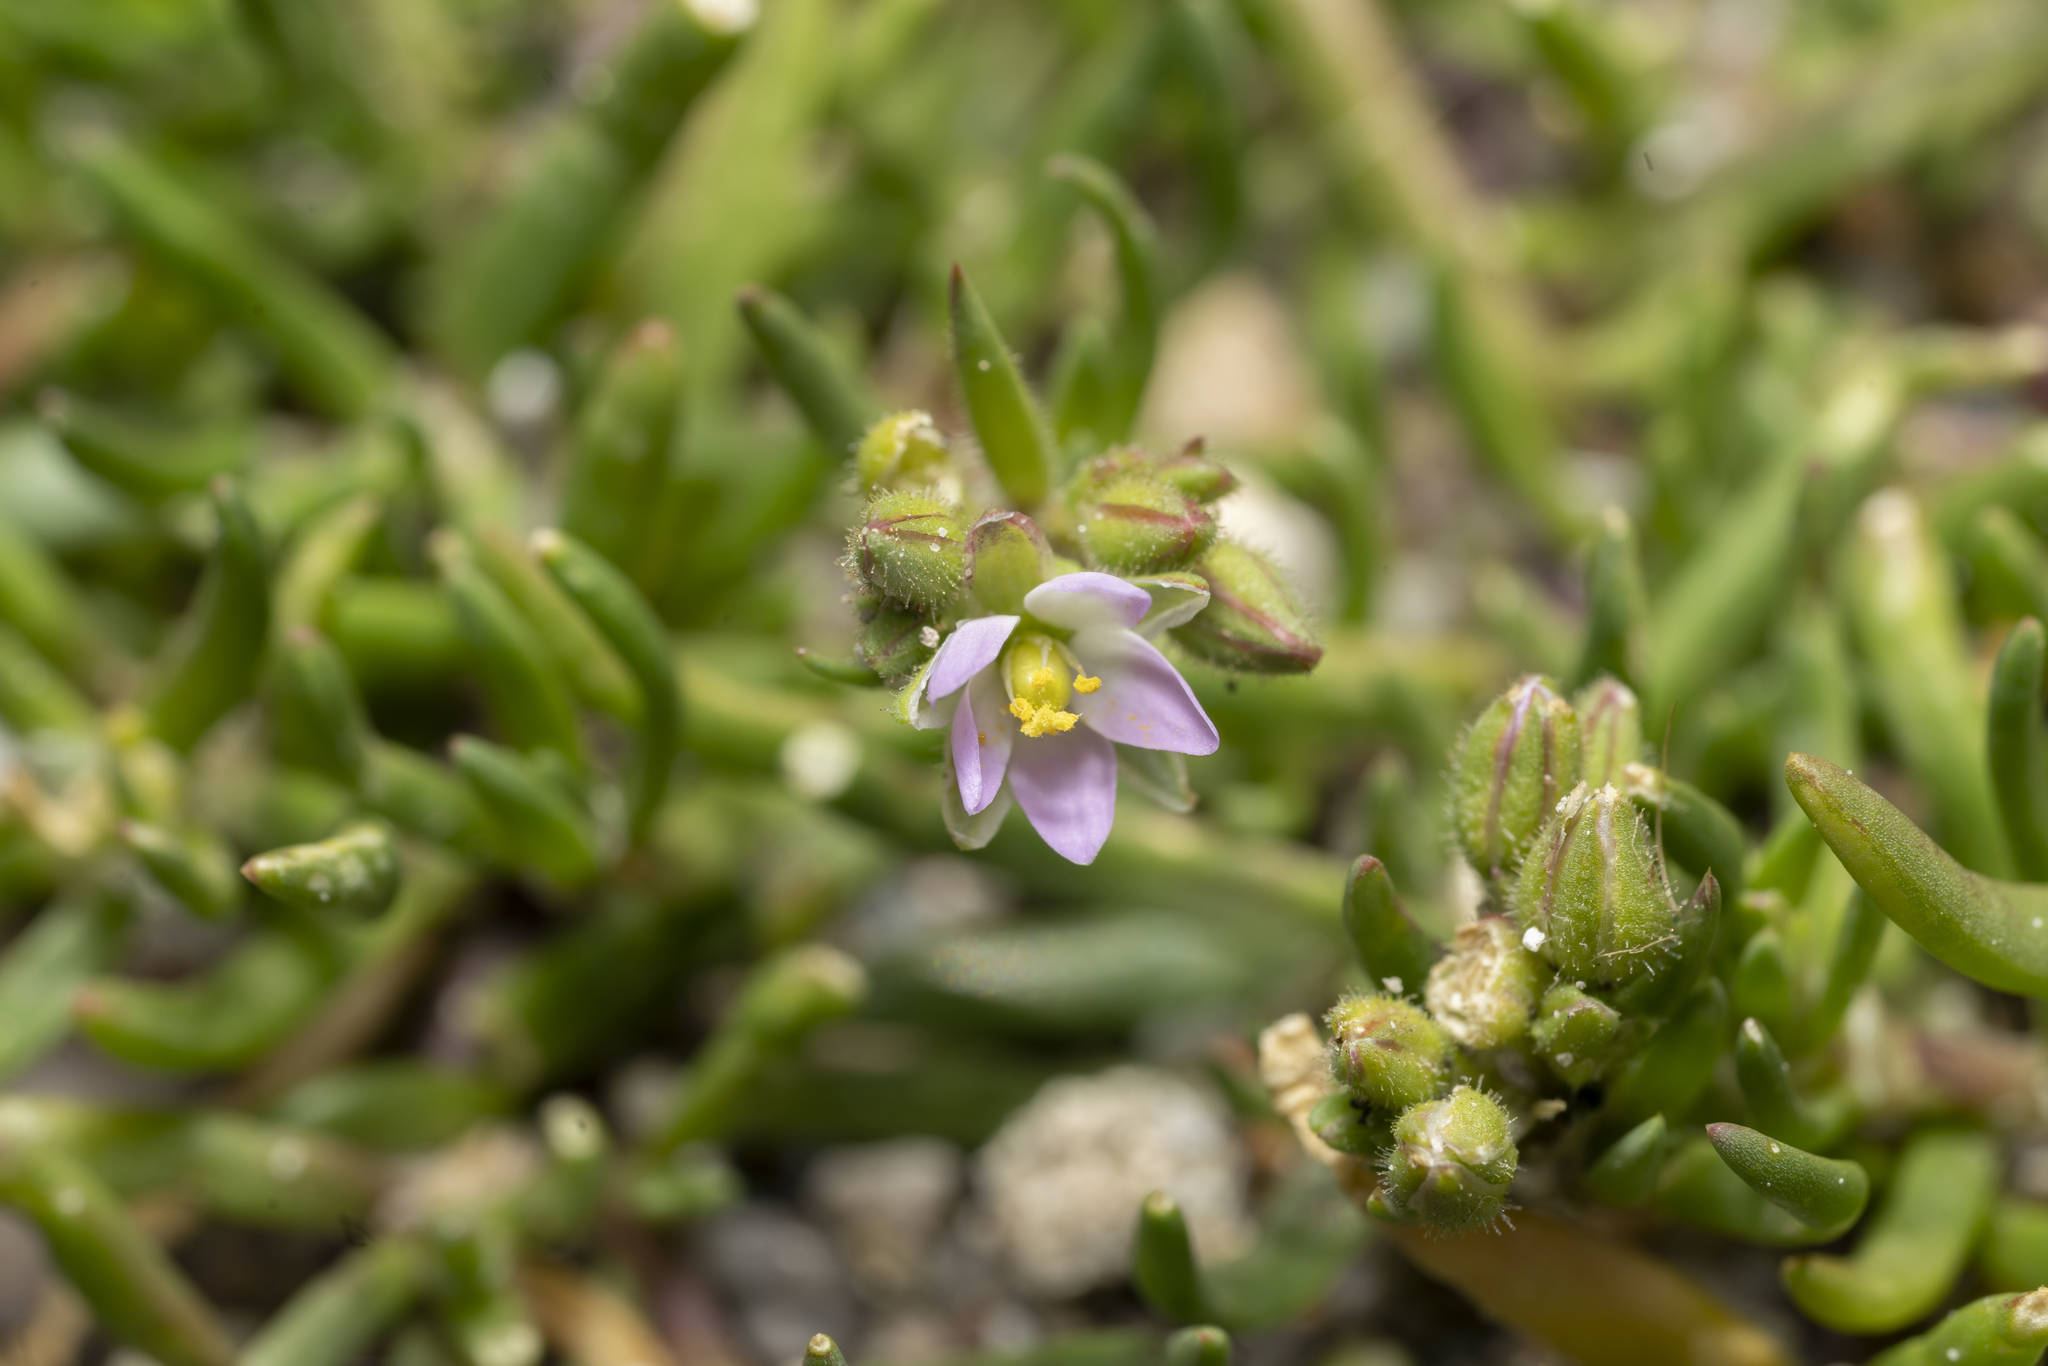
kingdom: Plantae
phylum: Tracheophyta
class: Magnoliopsida
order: Caryophyllales
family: Caryophyllaceae
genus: Spergularia
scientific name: Spergularia marina
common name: Lesser sea-spurrey
